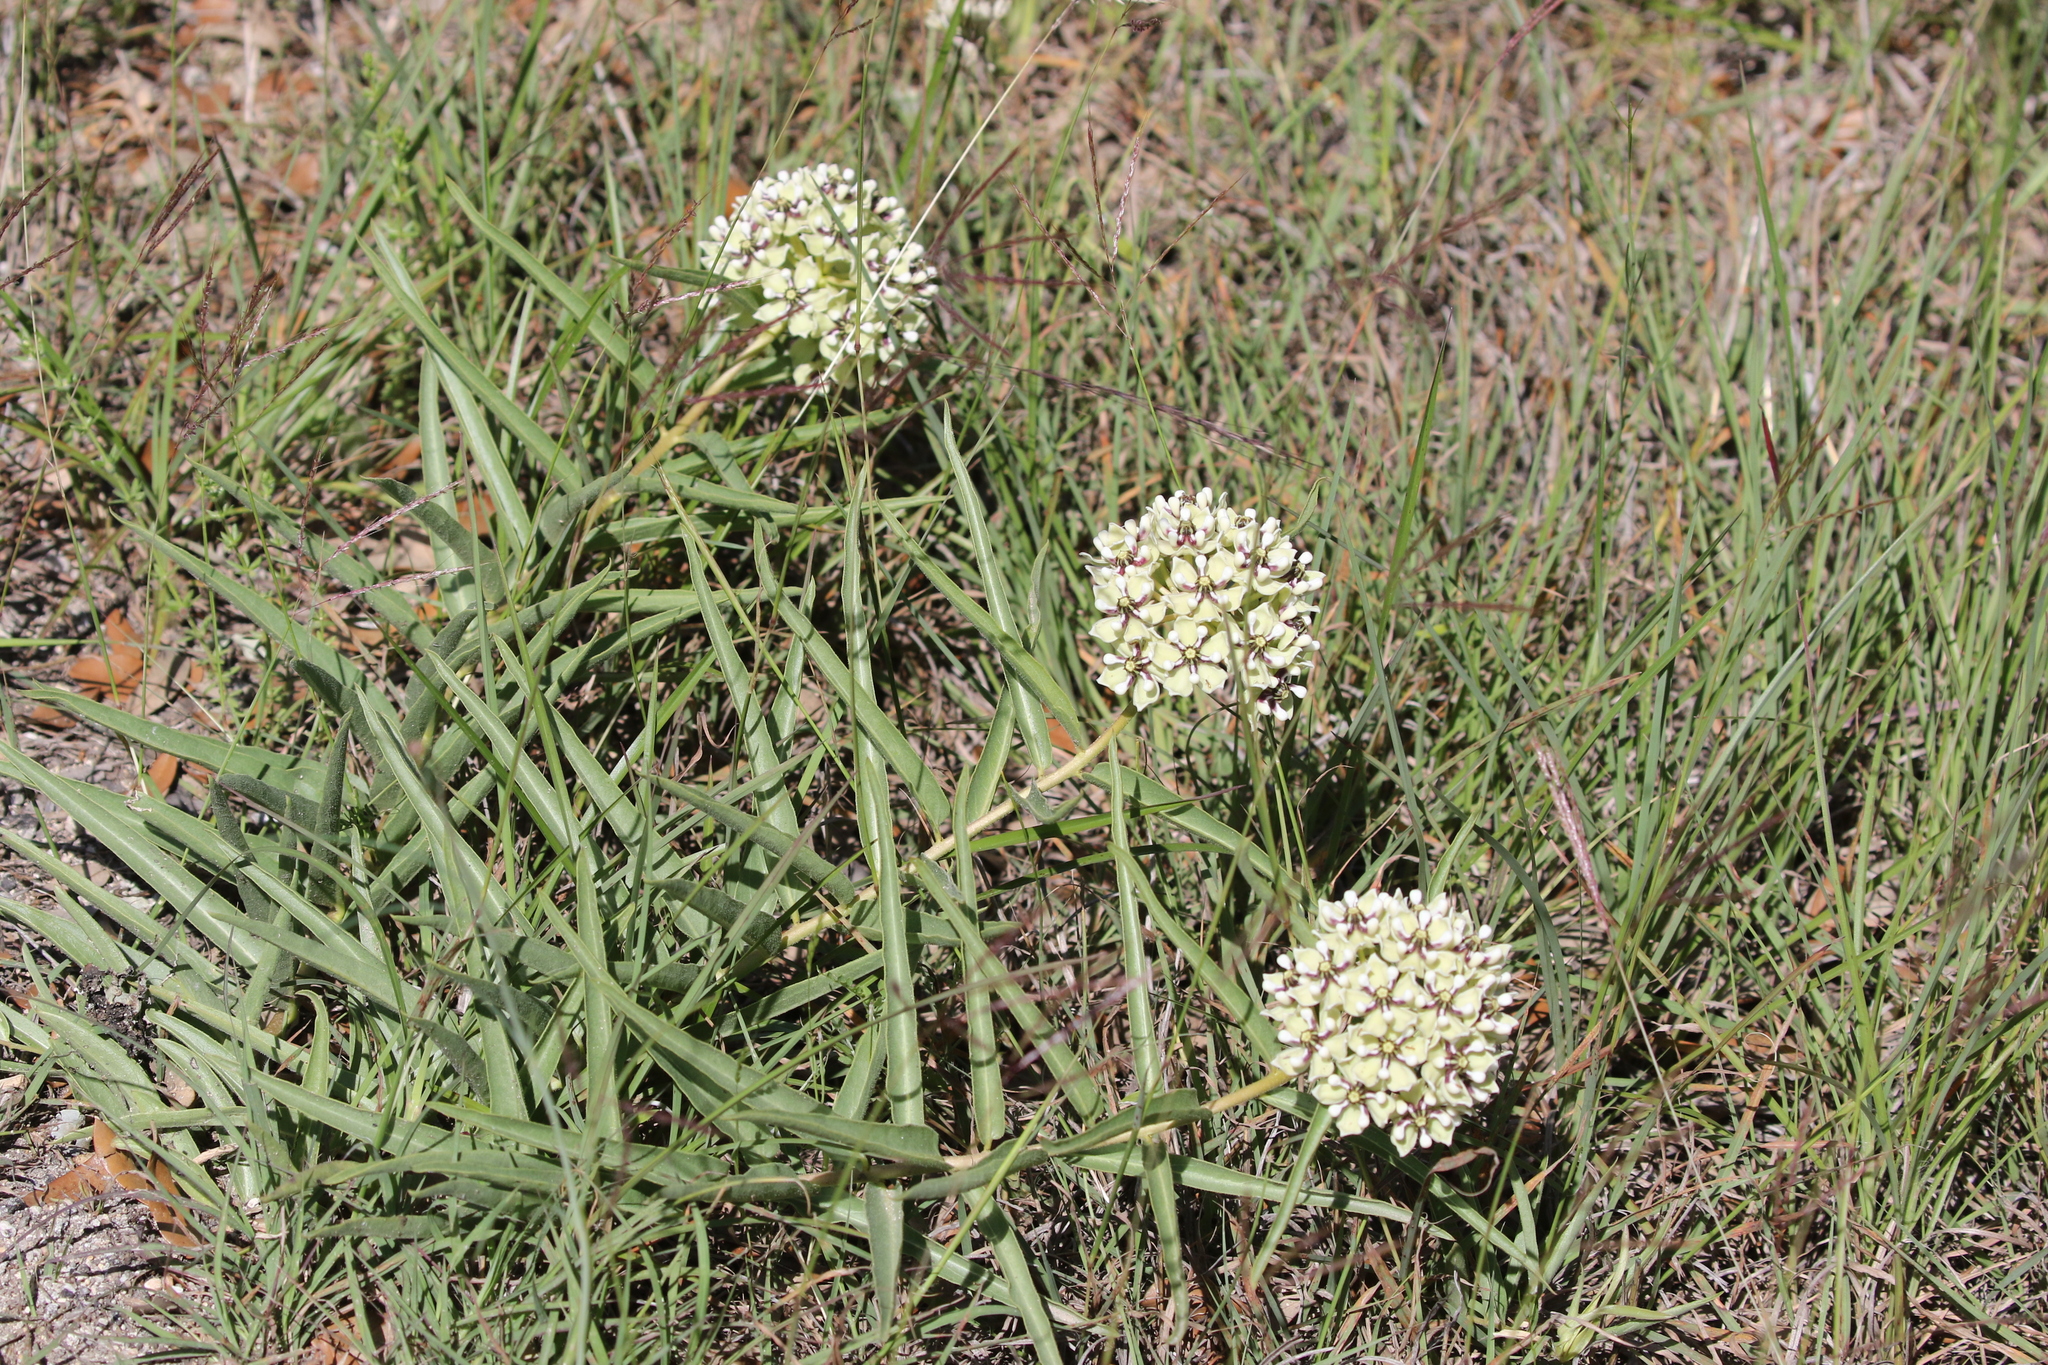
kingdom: Plantae
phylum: Tracheophyta
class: Magnoliopsida
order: Gentianales
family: Apocynaceae
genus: Asclepias
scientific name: Asclepias asperula
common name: Antelope horns
